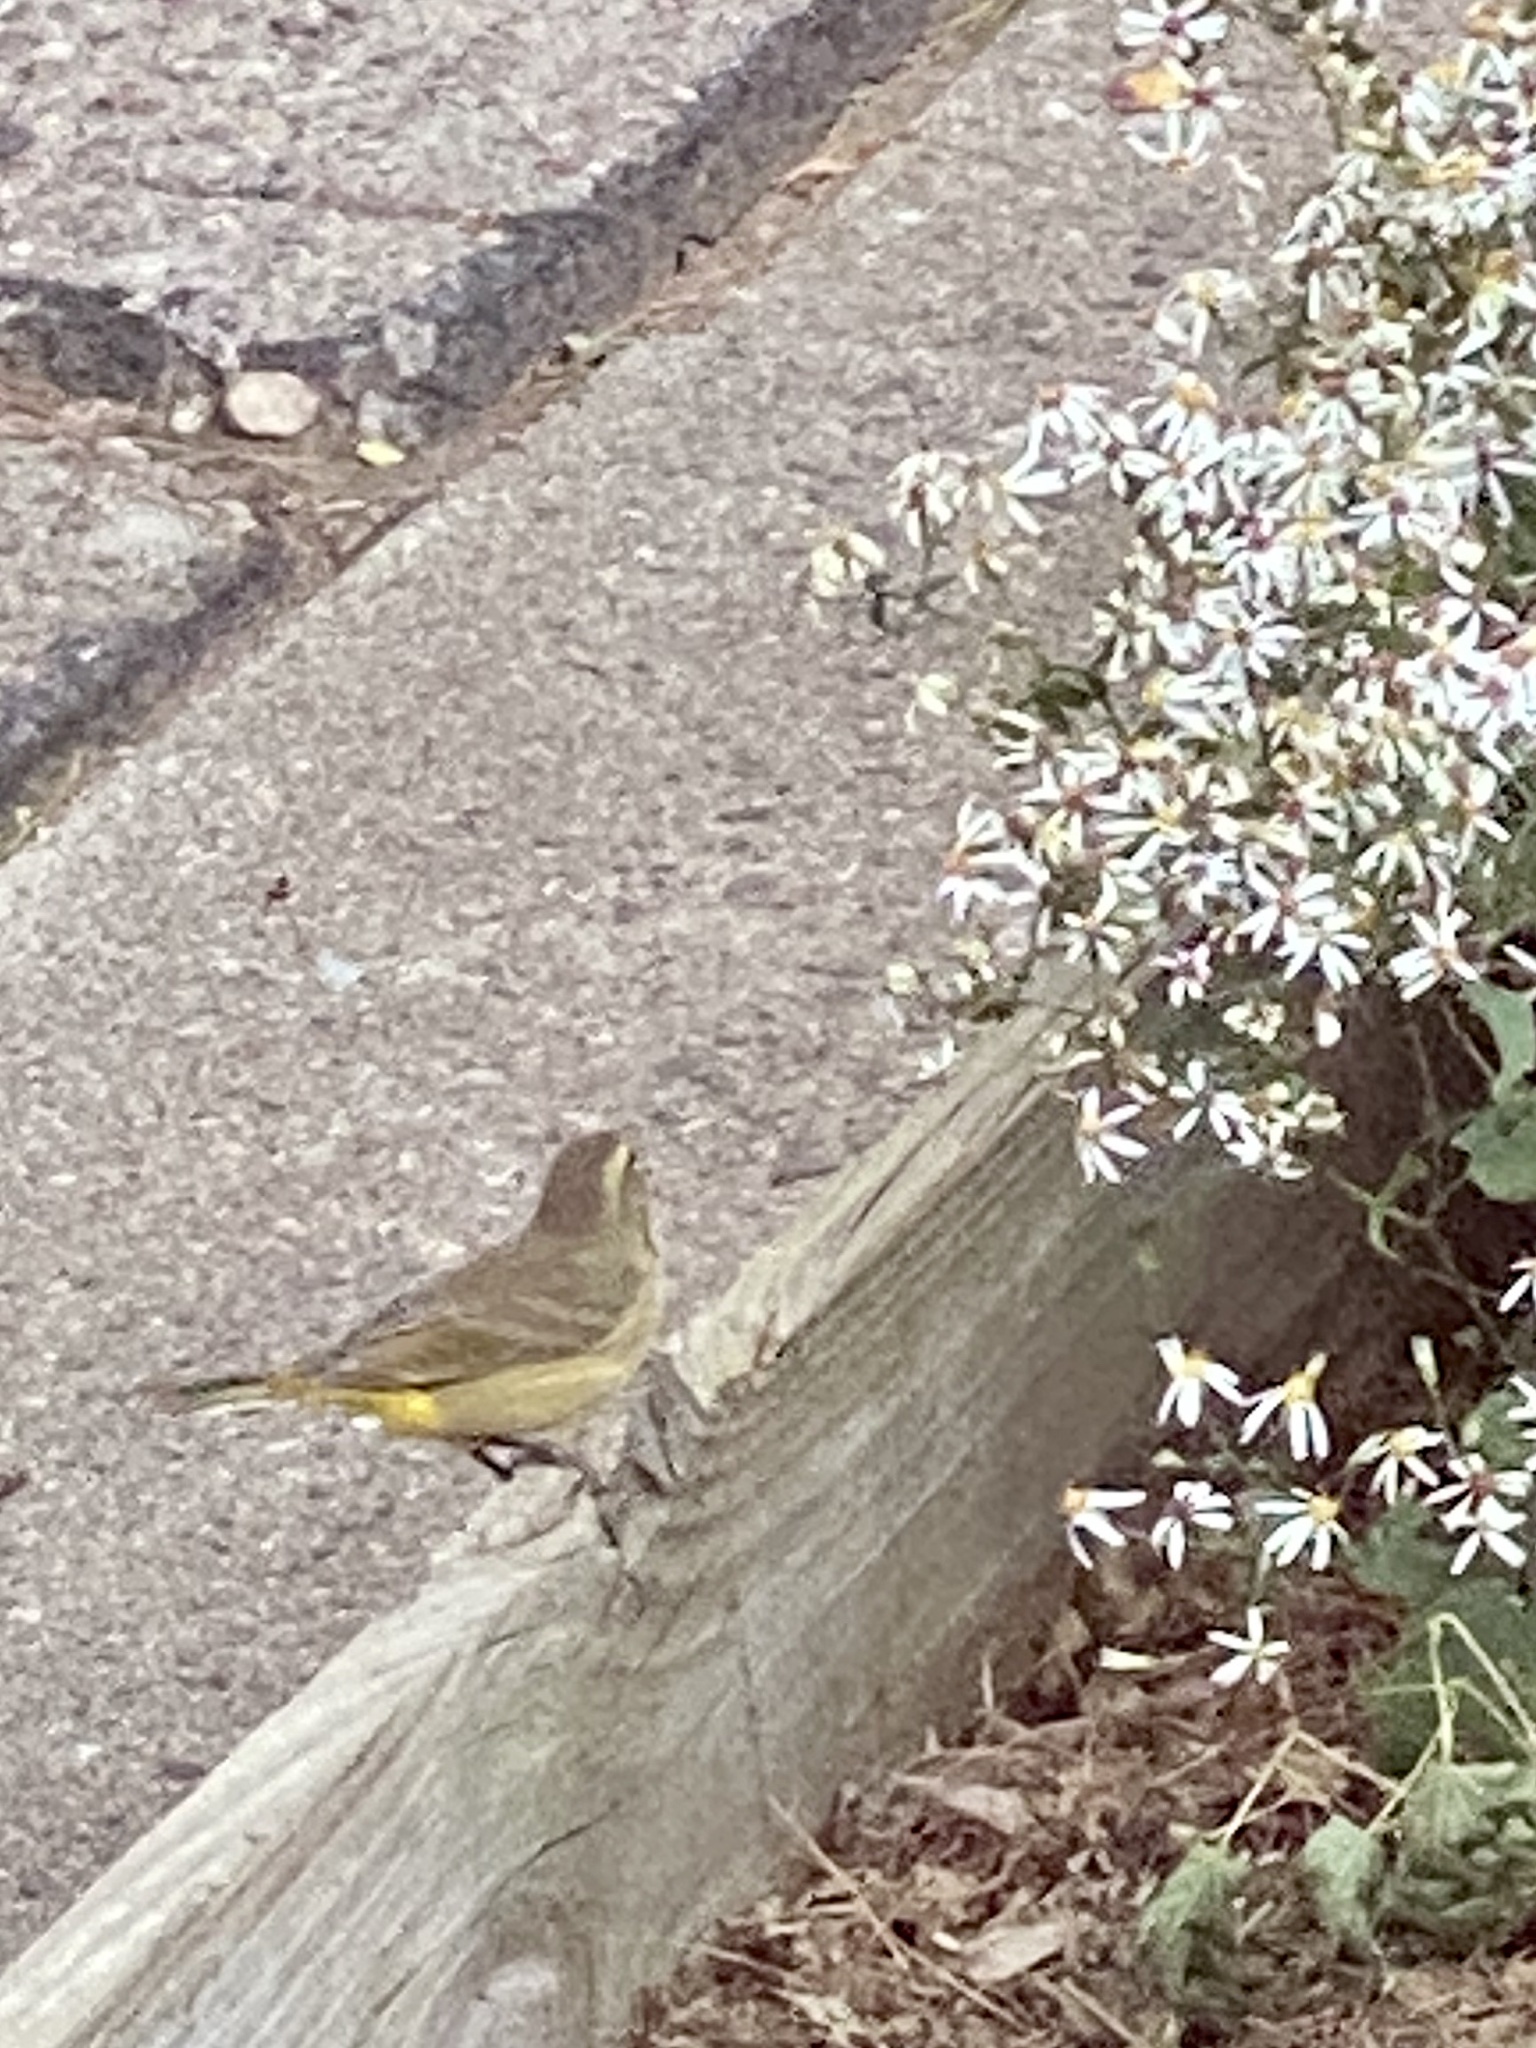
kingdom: Animalia
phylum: Chordata
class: Aves
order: Passeriformes
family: Parulidae
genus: Setophaga
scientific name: Setophaga palmarum
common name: Palm warbler
